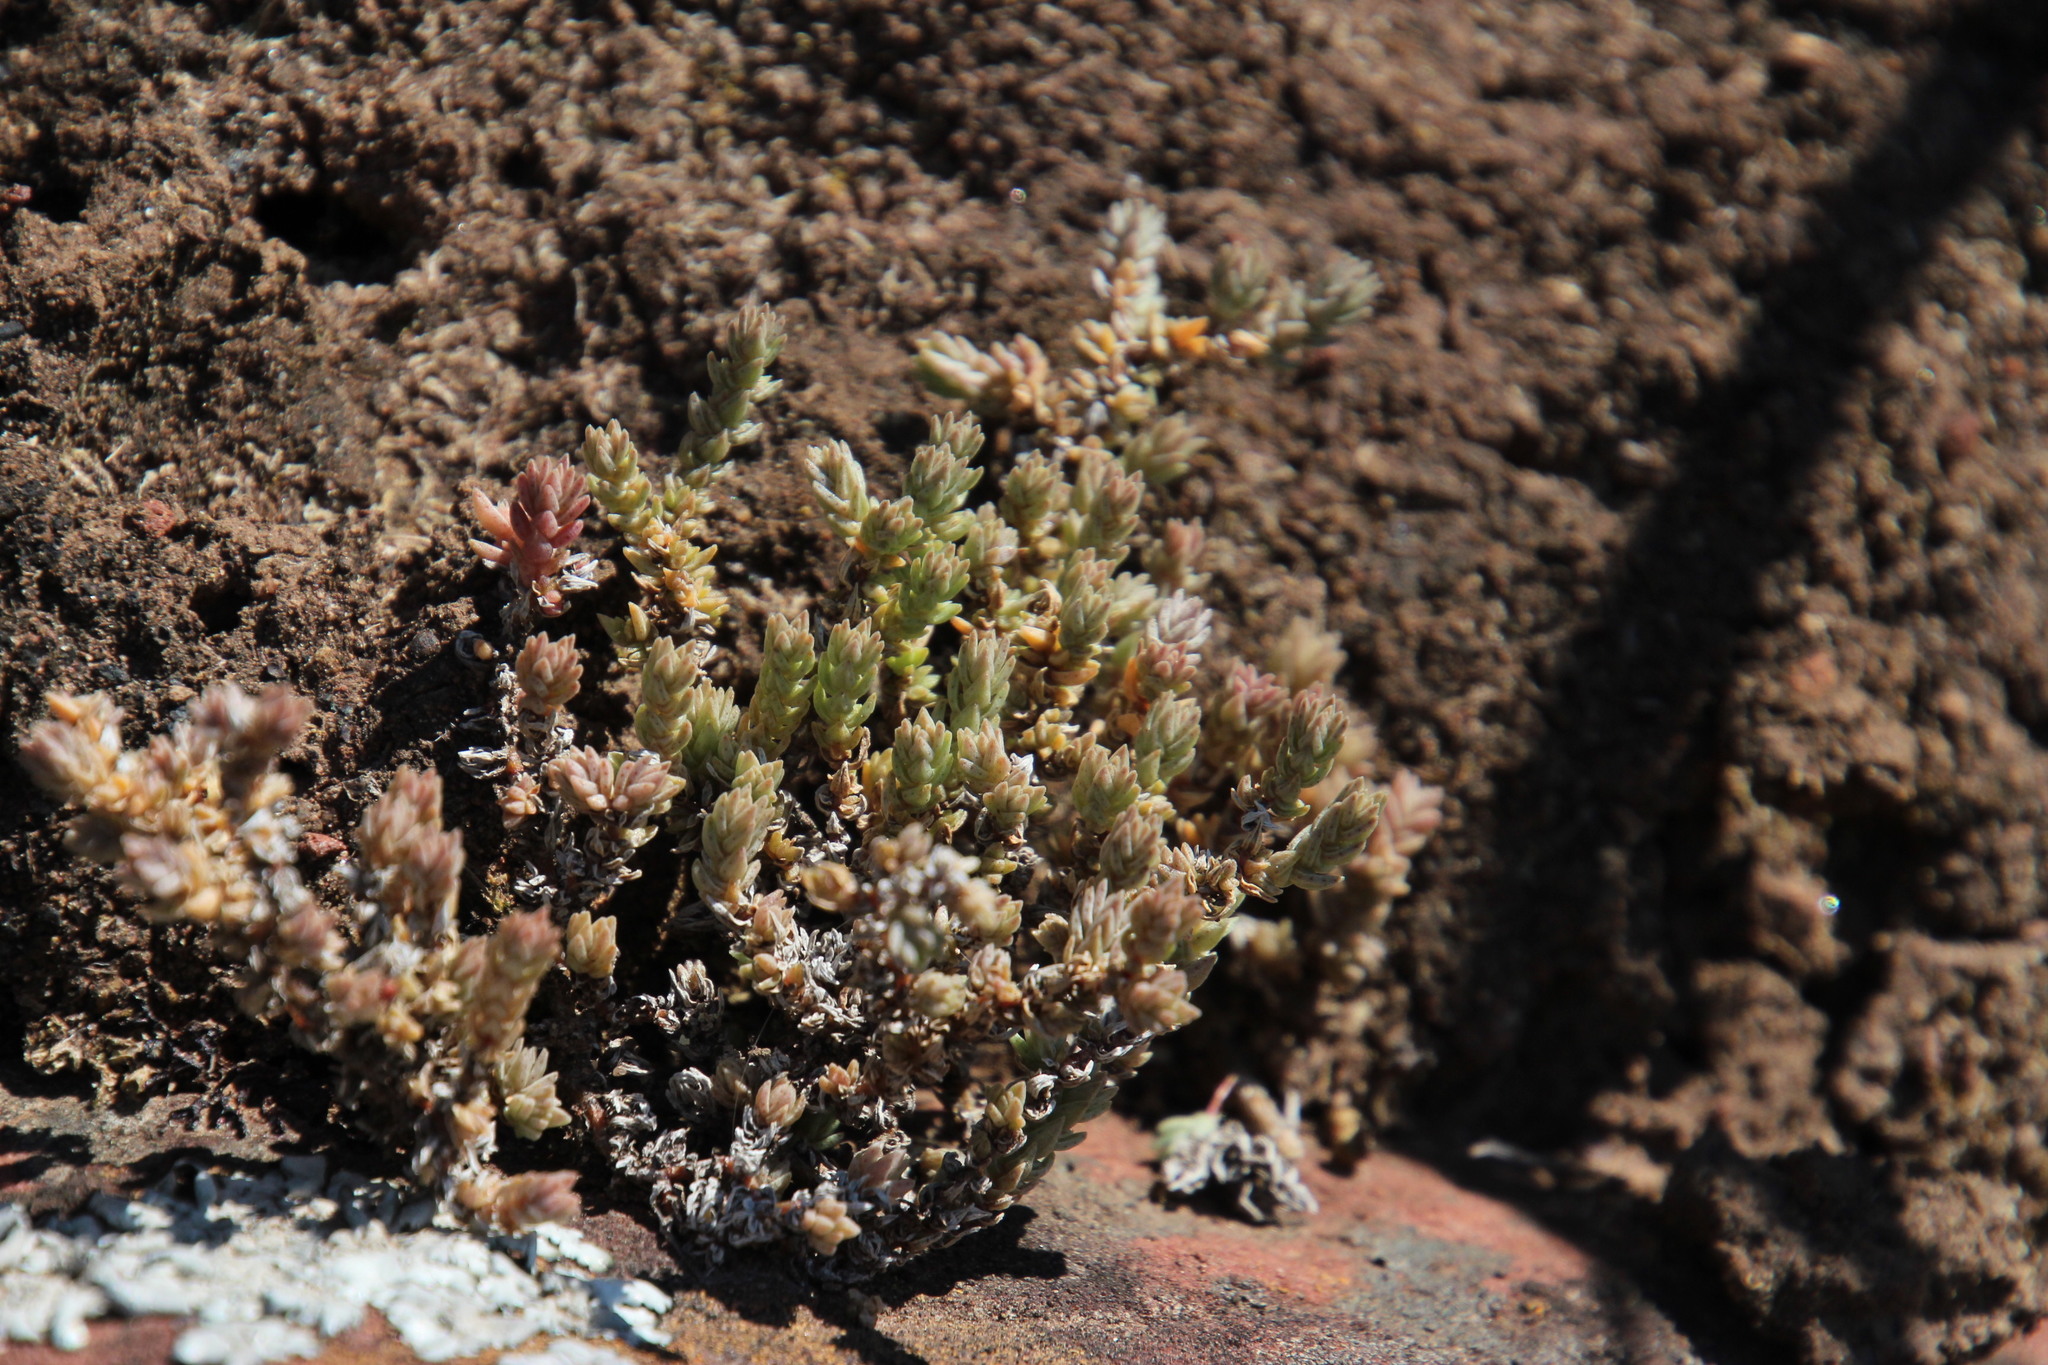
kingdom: Plantae
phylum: Tracheophyta
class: Magnoliopsida
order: Saxifragales
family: Crassulaceae
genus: Crassula
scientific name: Crassula lanceolata
